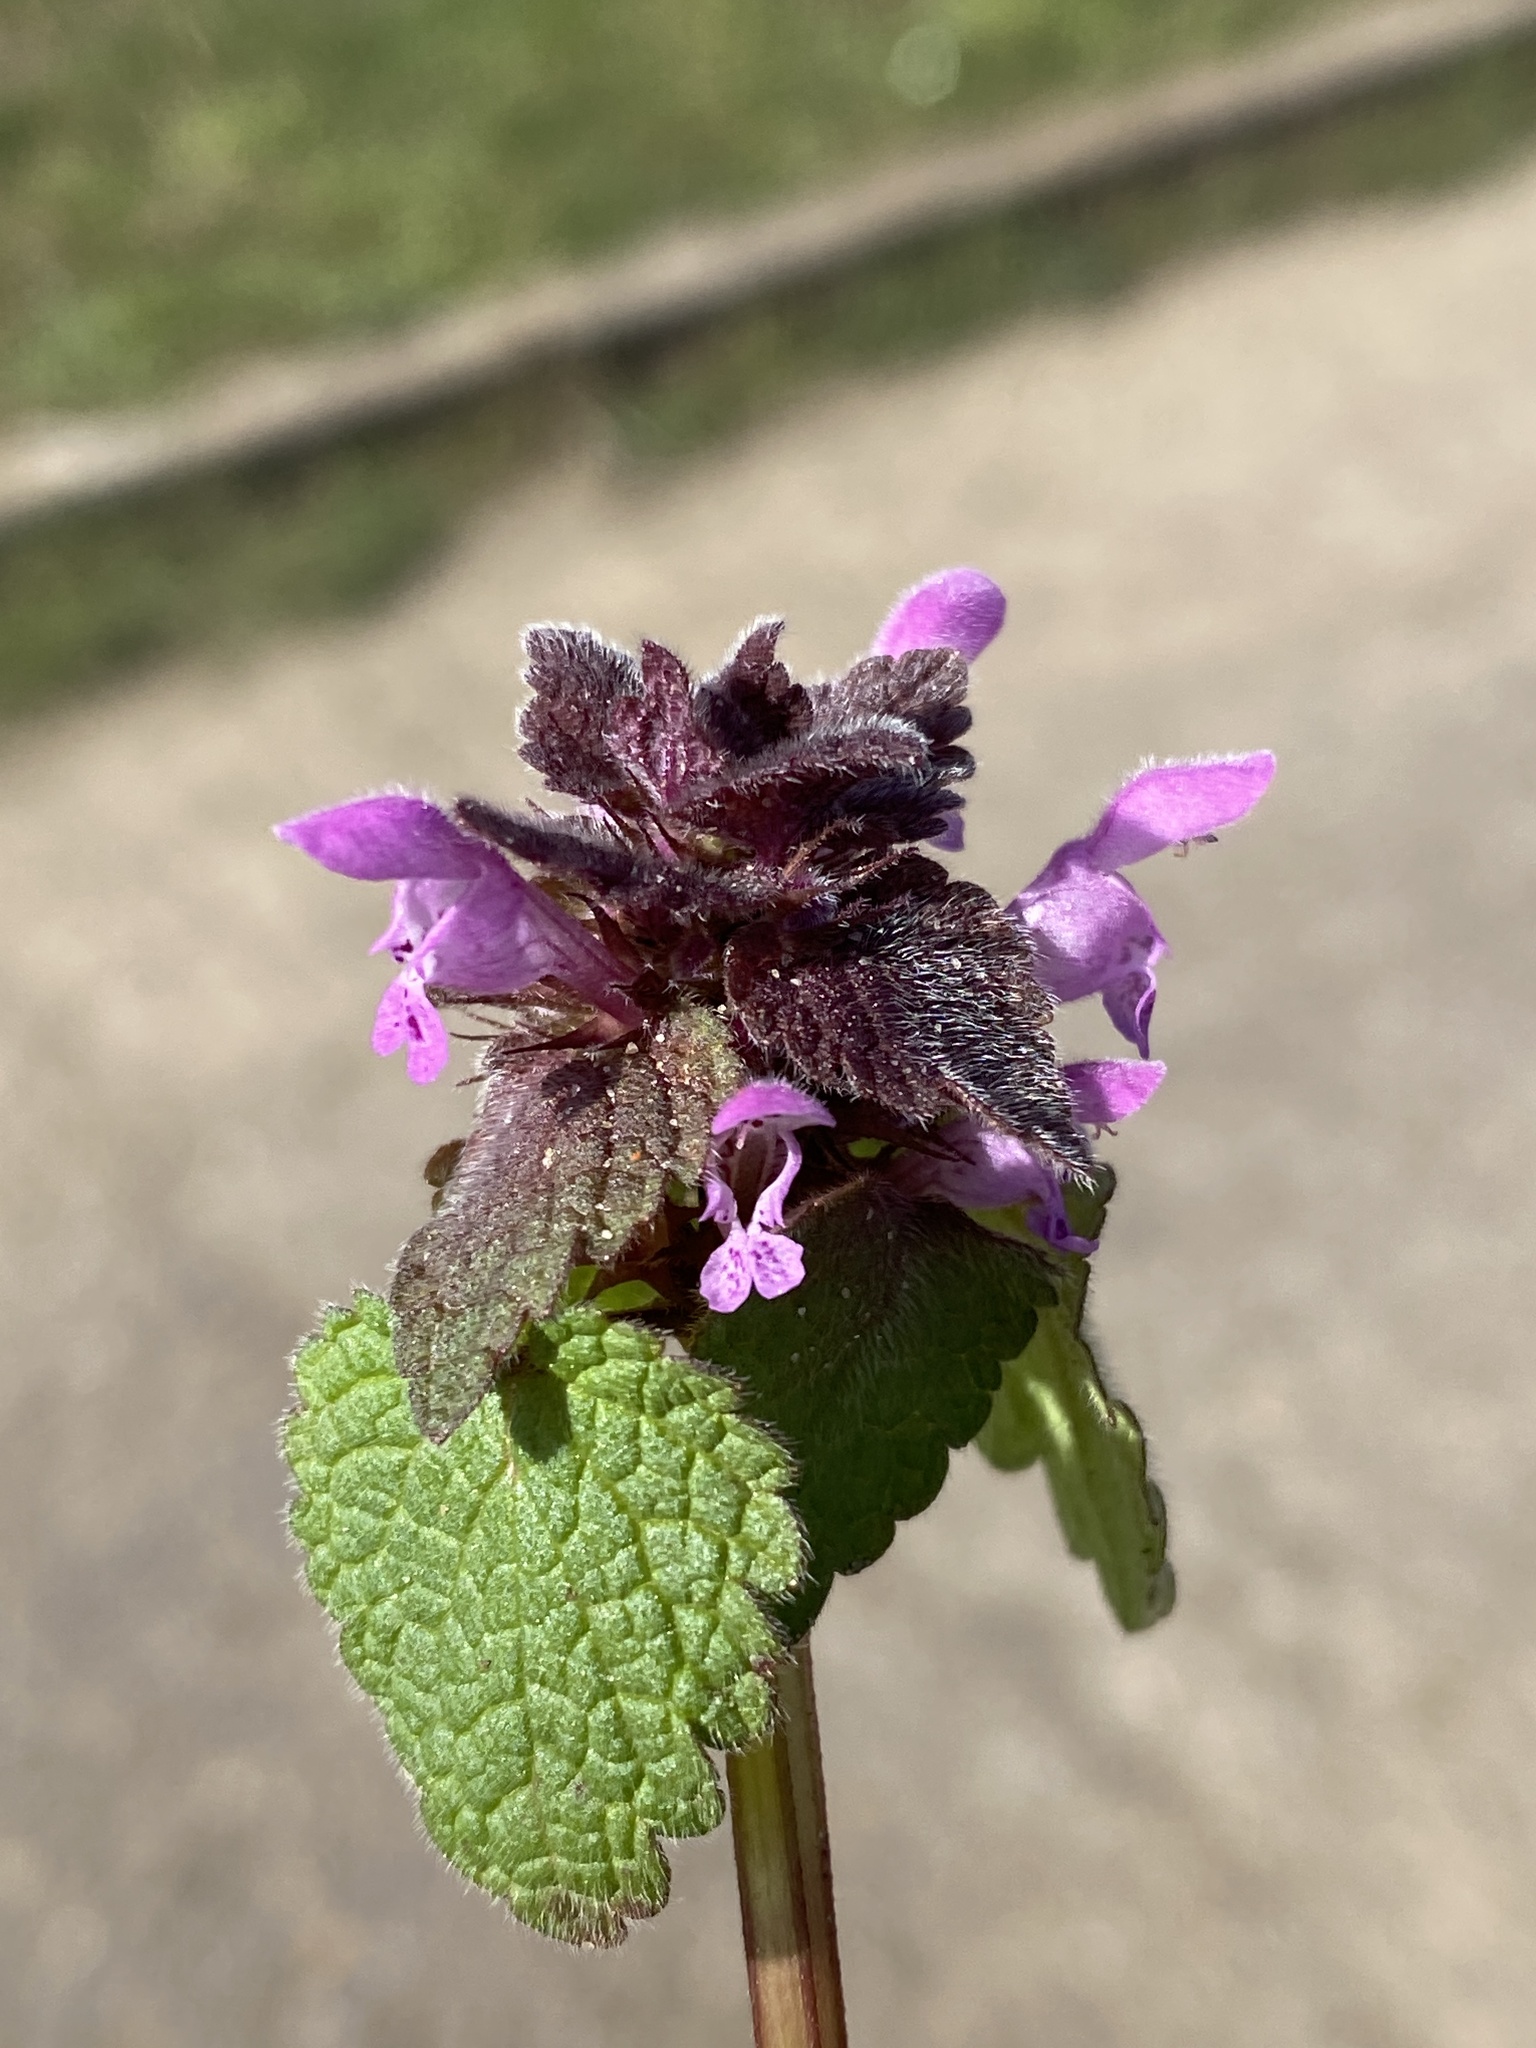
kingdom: Plantae
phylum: Tracheophyta
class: Magnoliopsida
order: Lamiales
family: Lamiaceae
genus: Lamium
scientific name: Lamium purpureum
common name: Red dead-nettle
